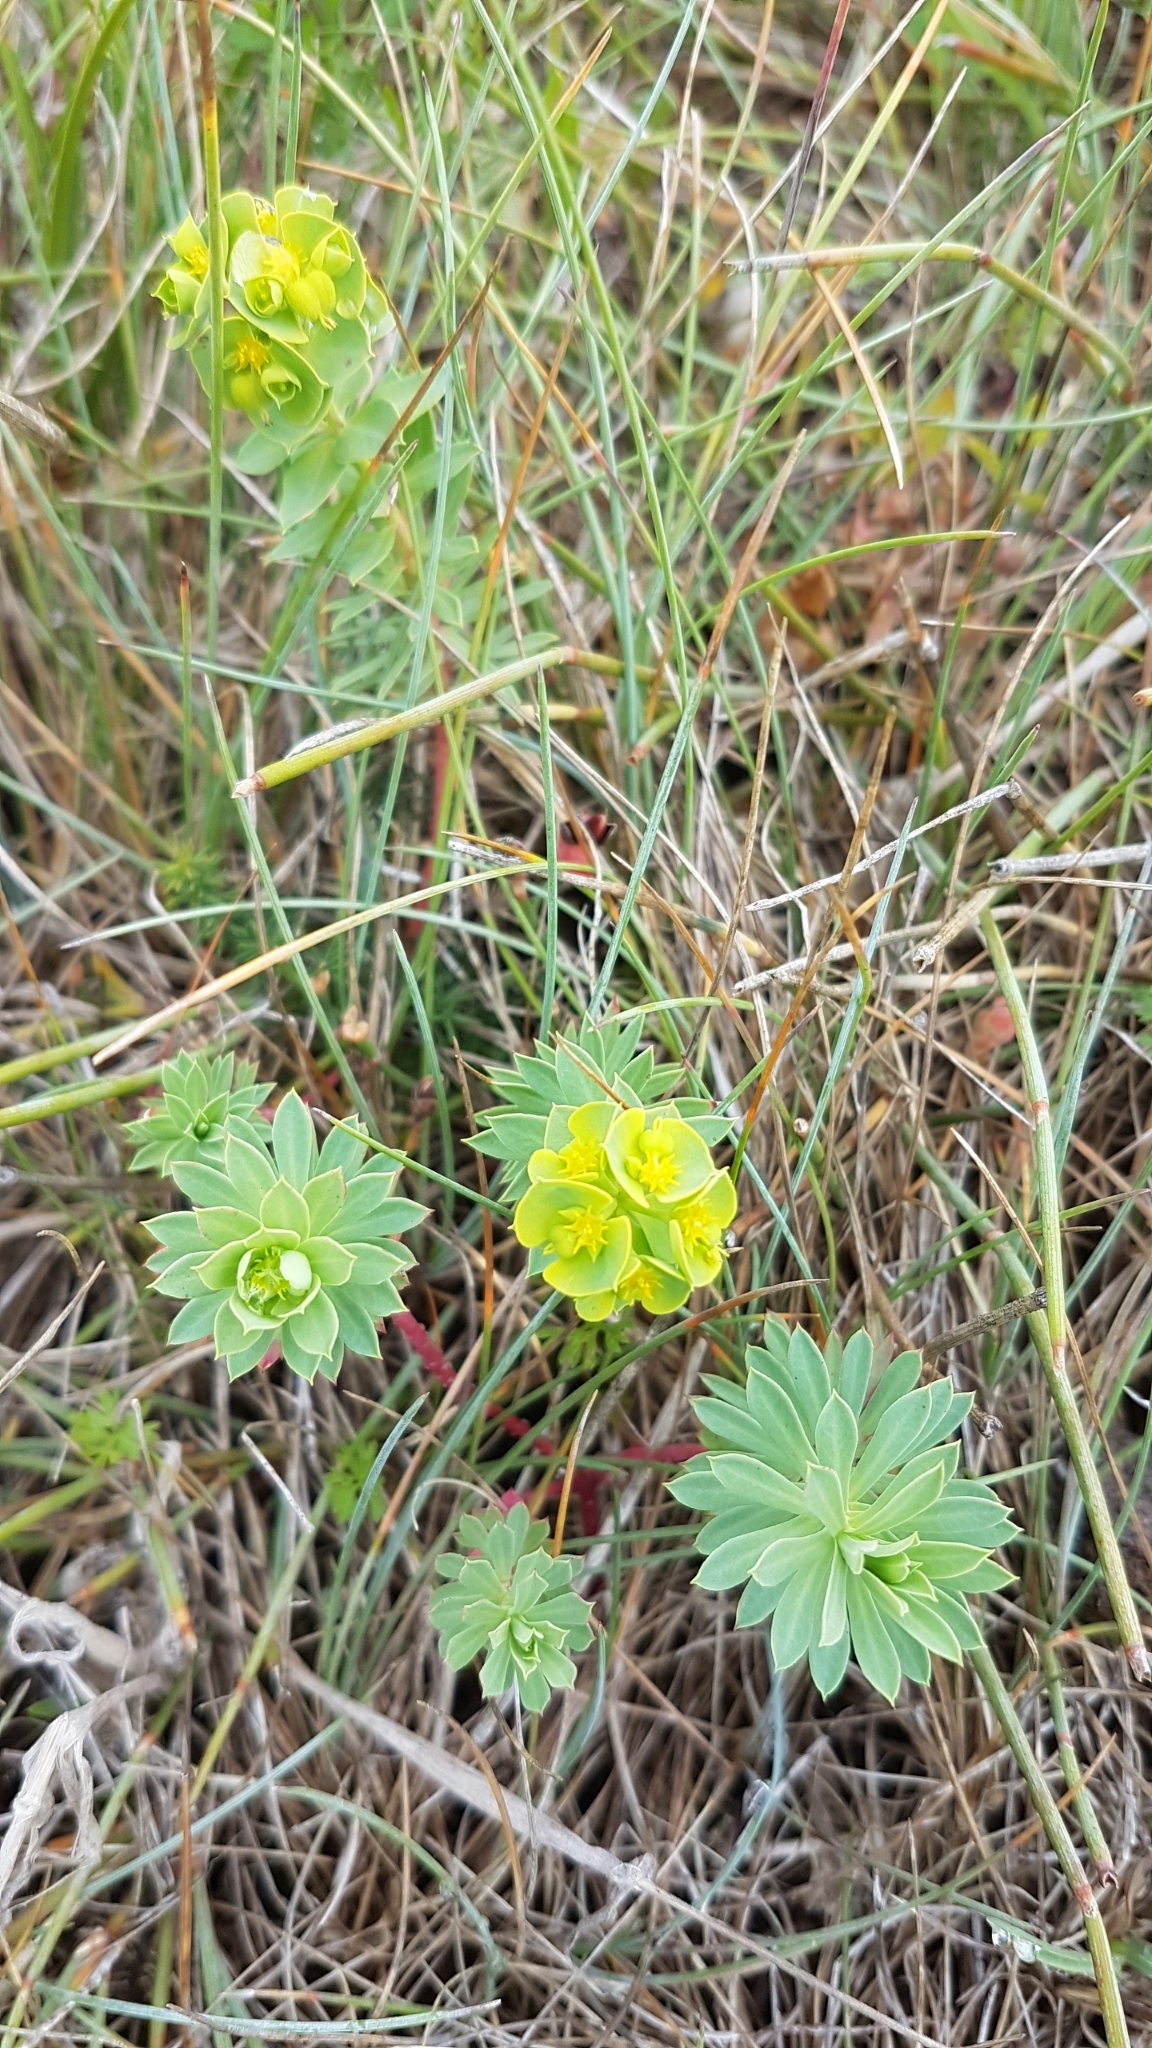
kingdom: Plantae
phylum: Tracheophyta
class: Magnoliopsida
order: Malpighiales
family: Euphorbiaceae
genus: Euphorbia
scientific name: Euphorbia paralias
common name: Sea spurge
